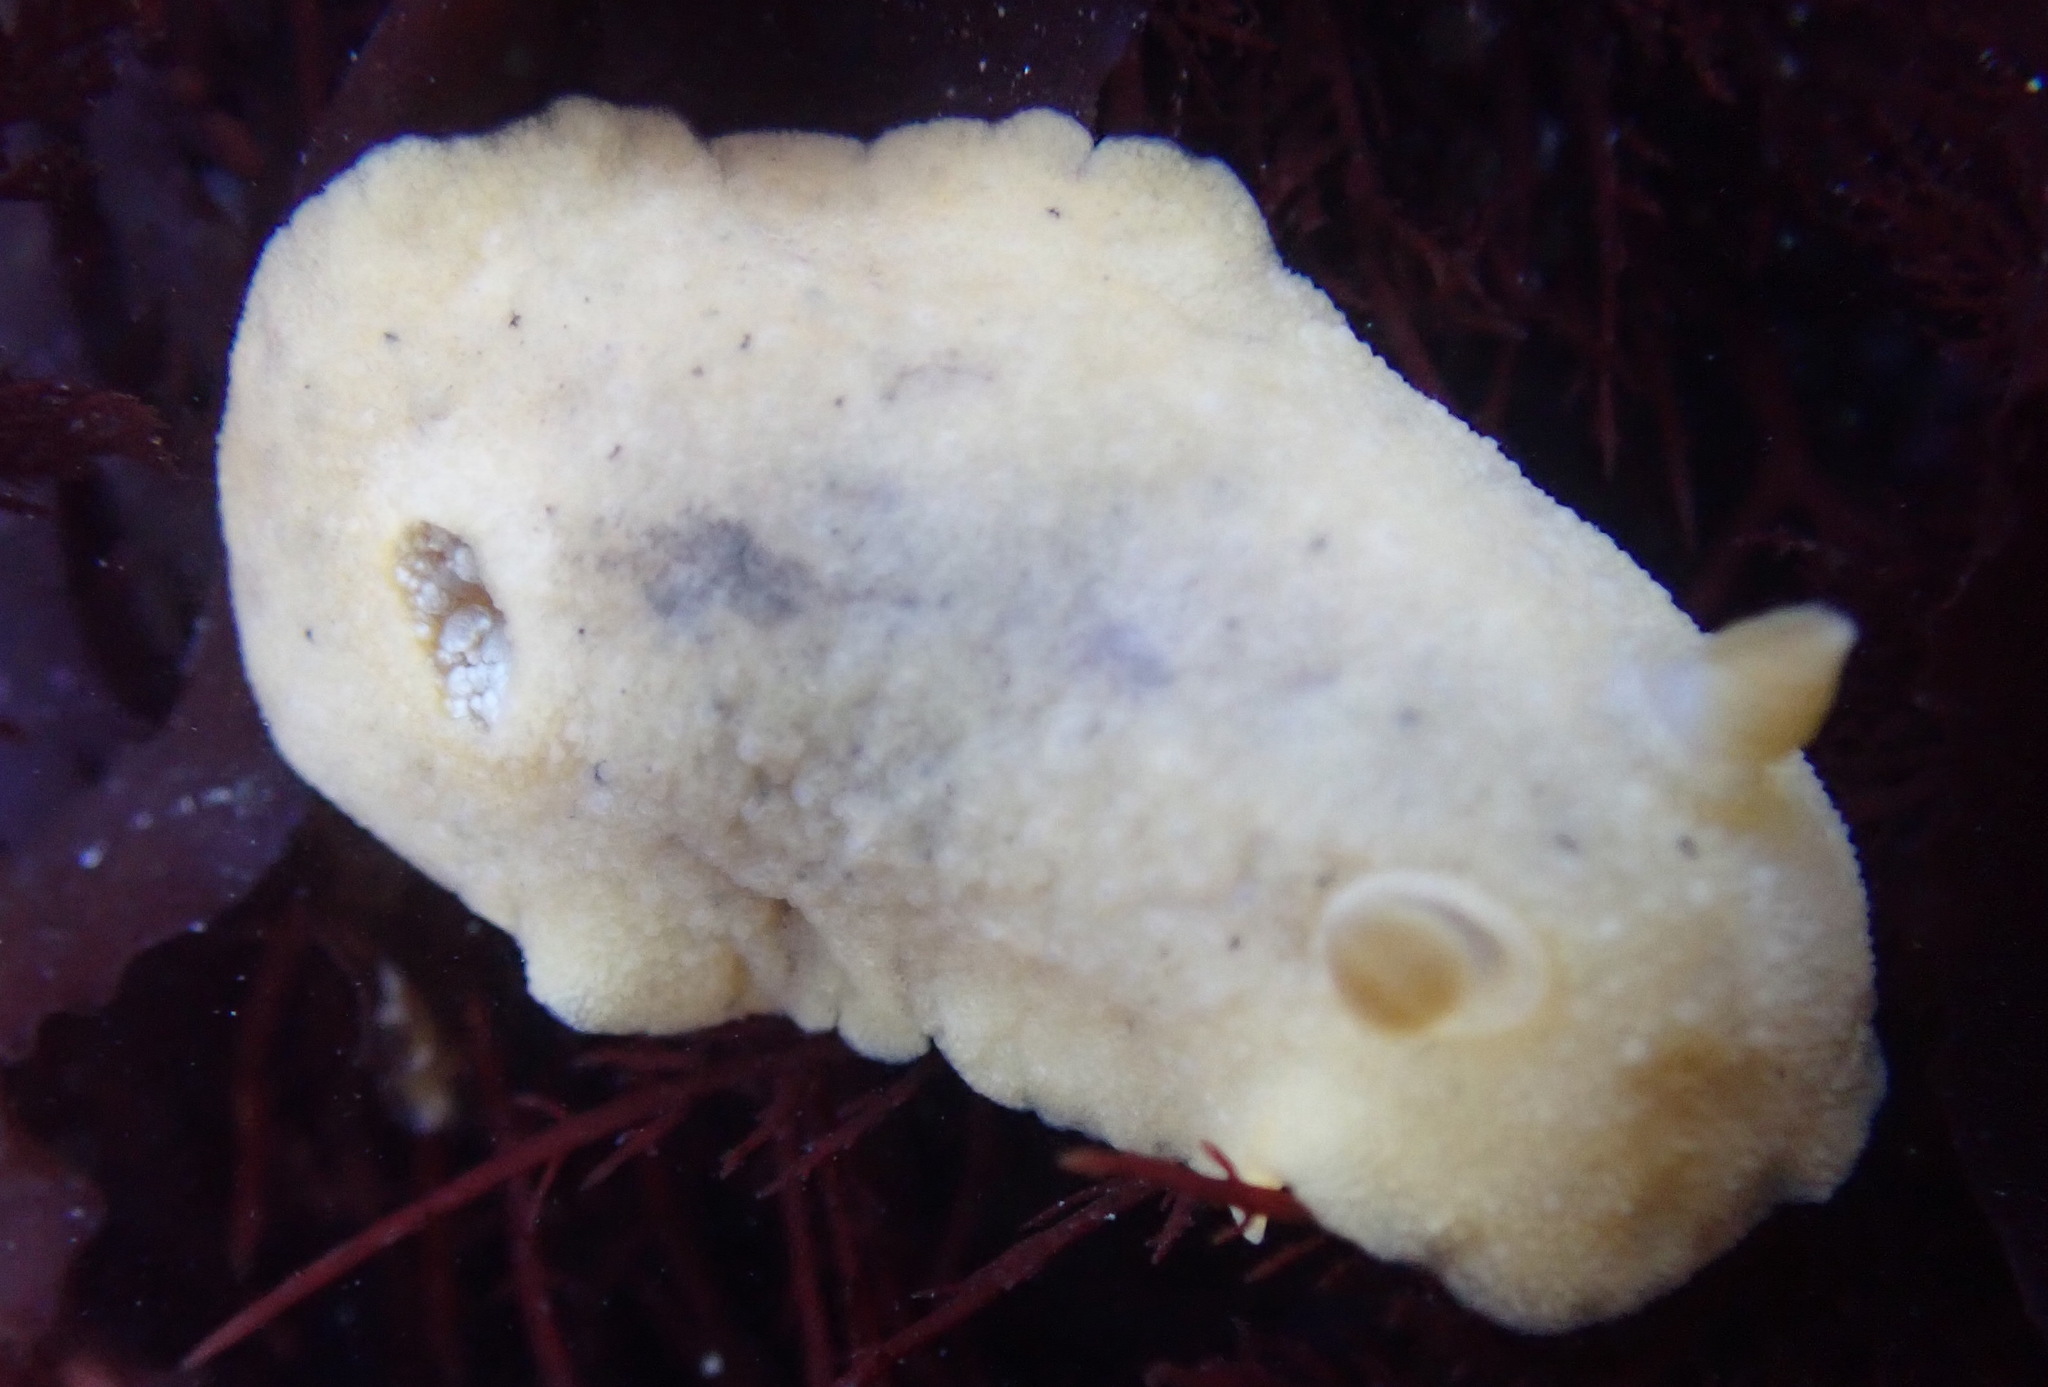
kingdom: Animalia
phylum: Mollusca
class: Gastropoda
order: Nudibranchia
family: Discodorididae
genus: Geitodoris
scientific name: Geitodoris heathi
